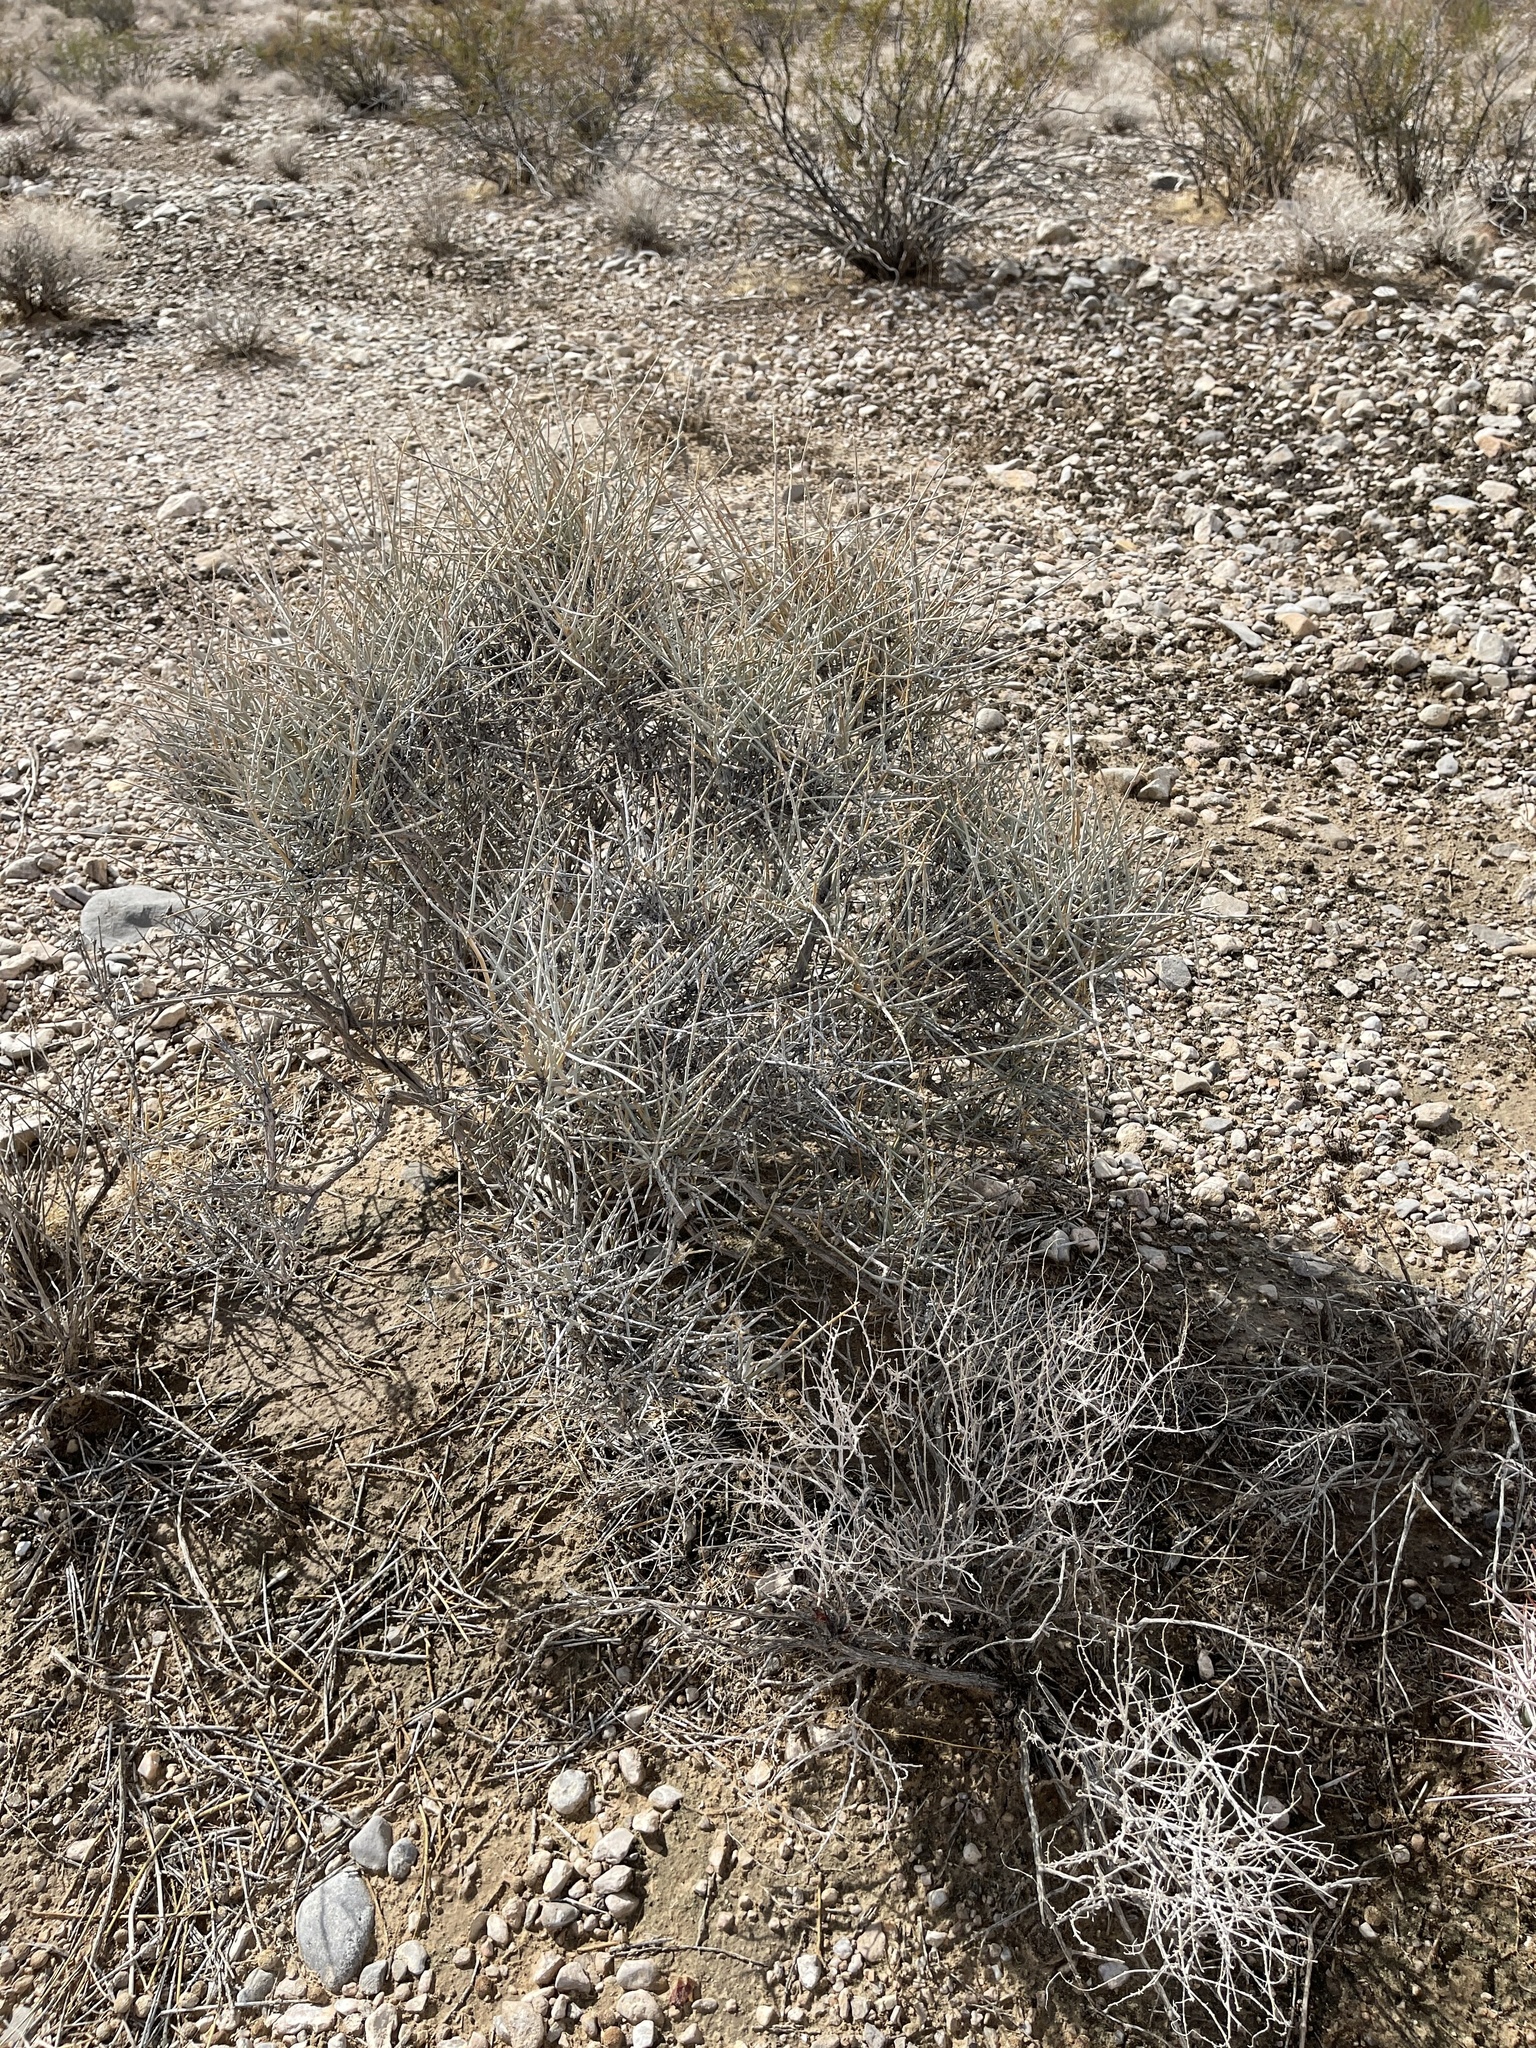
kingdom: Plantae
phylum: Tracheophyta
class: Gnetopsida
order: Ephedrales
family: Ephedraceae
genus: Ephedra
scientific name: Ephedra nevadensis
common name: Gray ephedra
